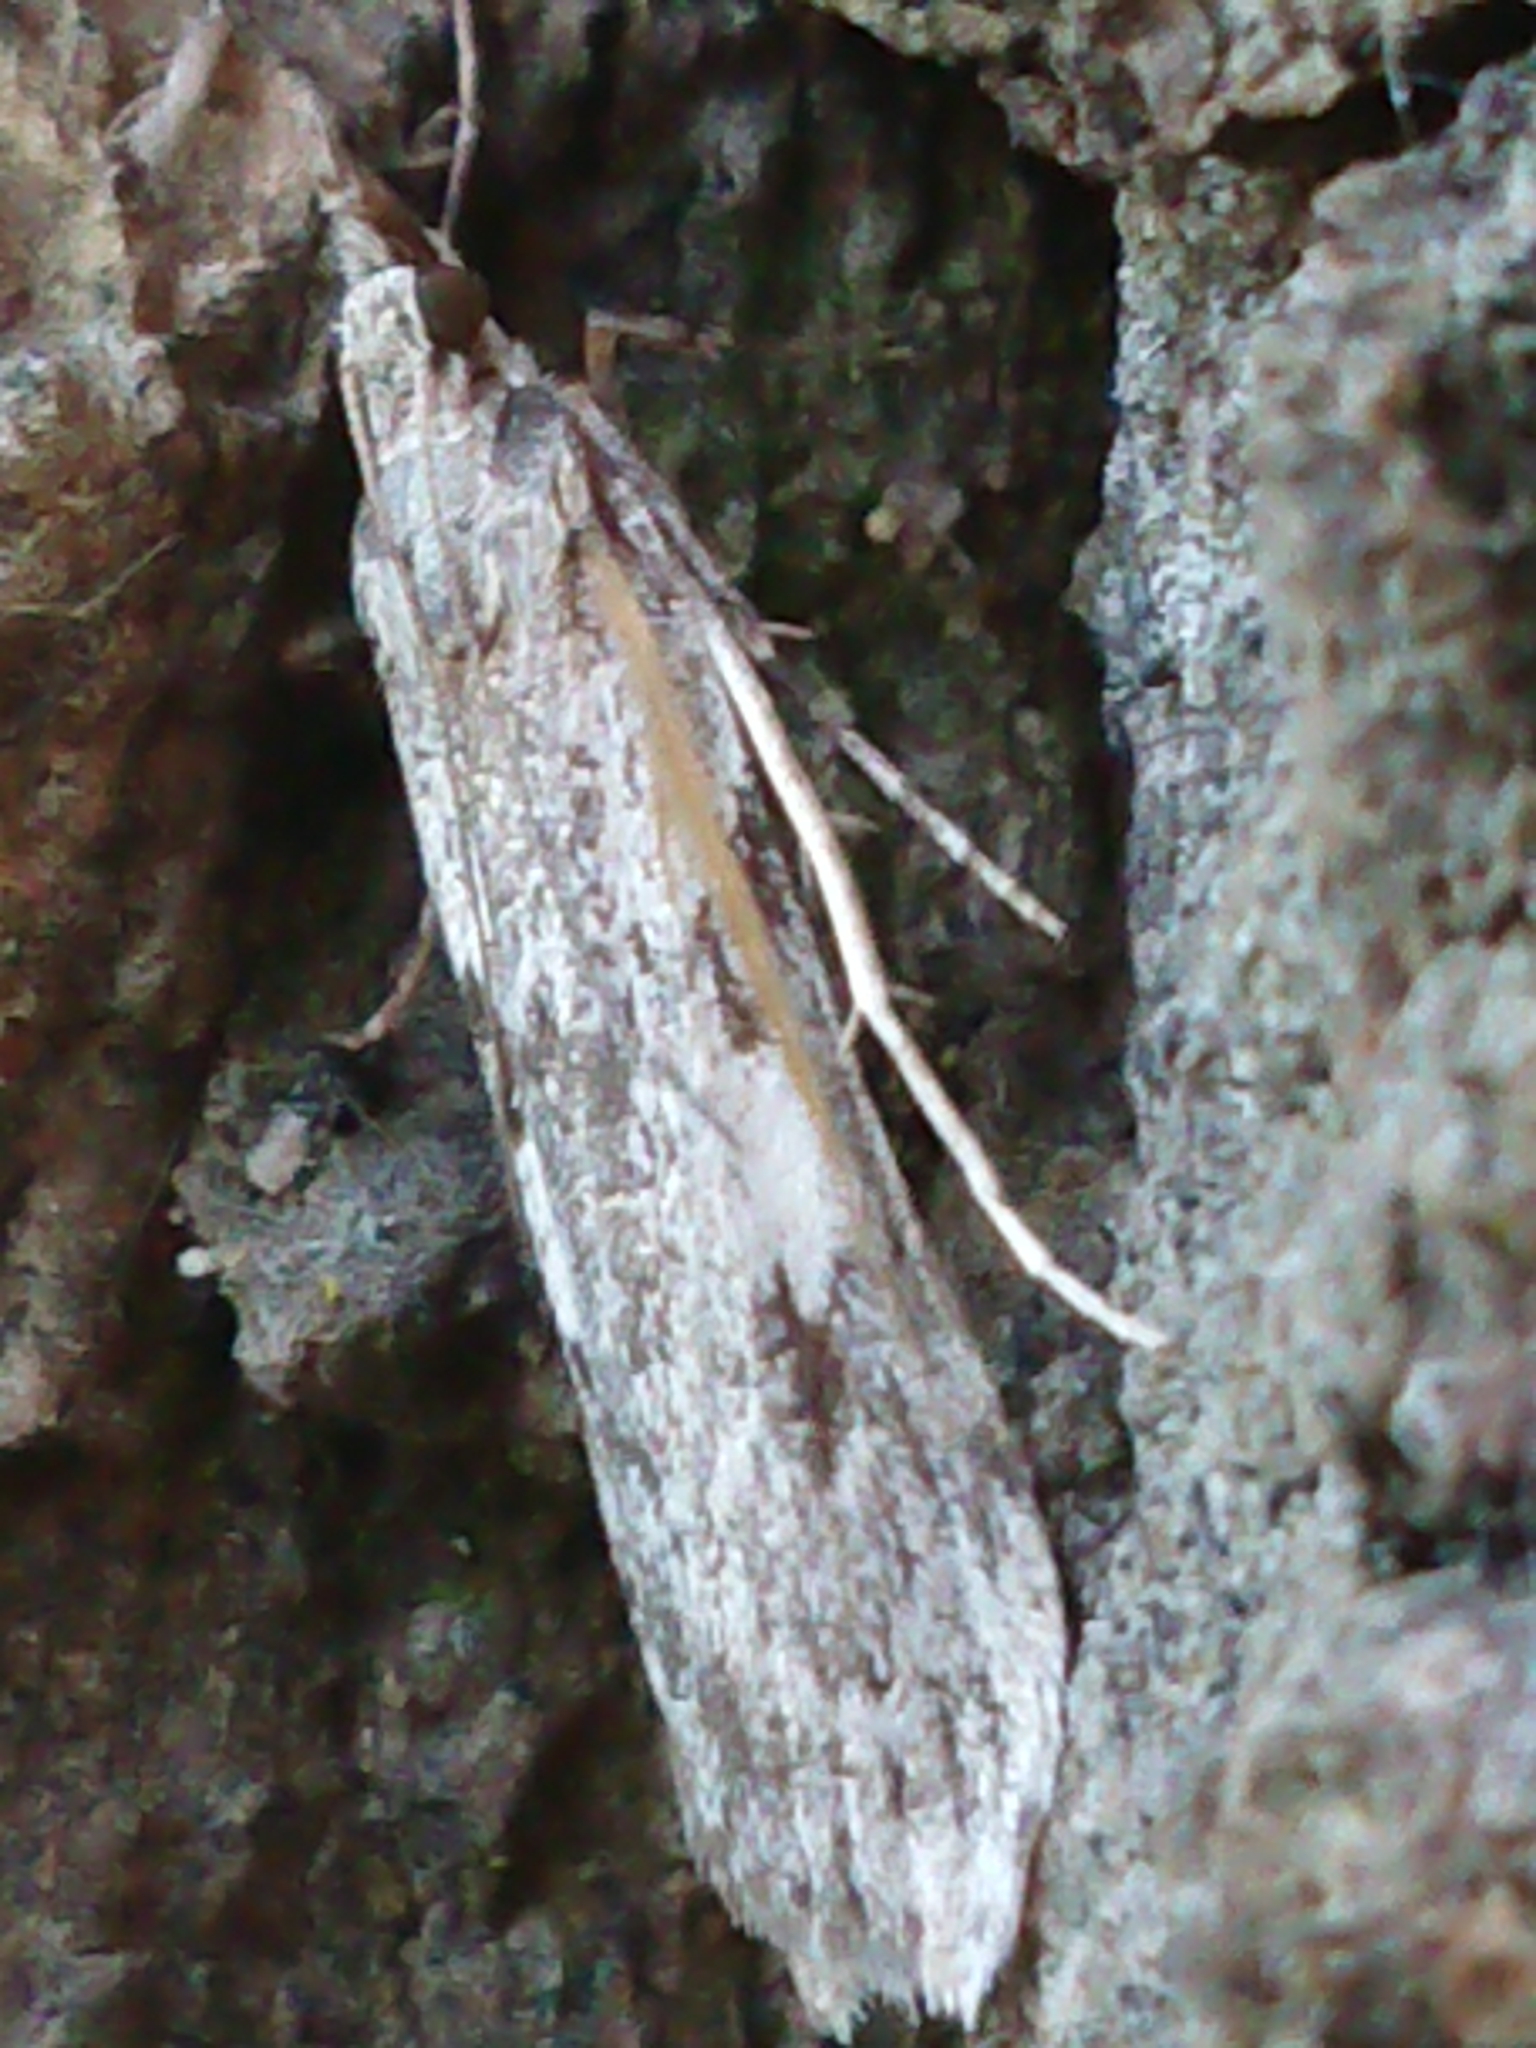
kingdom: Animalia
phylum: Arthropoda
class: Insecta
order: Lepidoptera
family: Crambidae
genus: Scoparia
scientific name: Scoparia halopis
